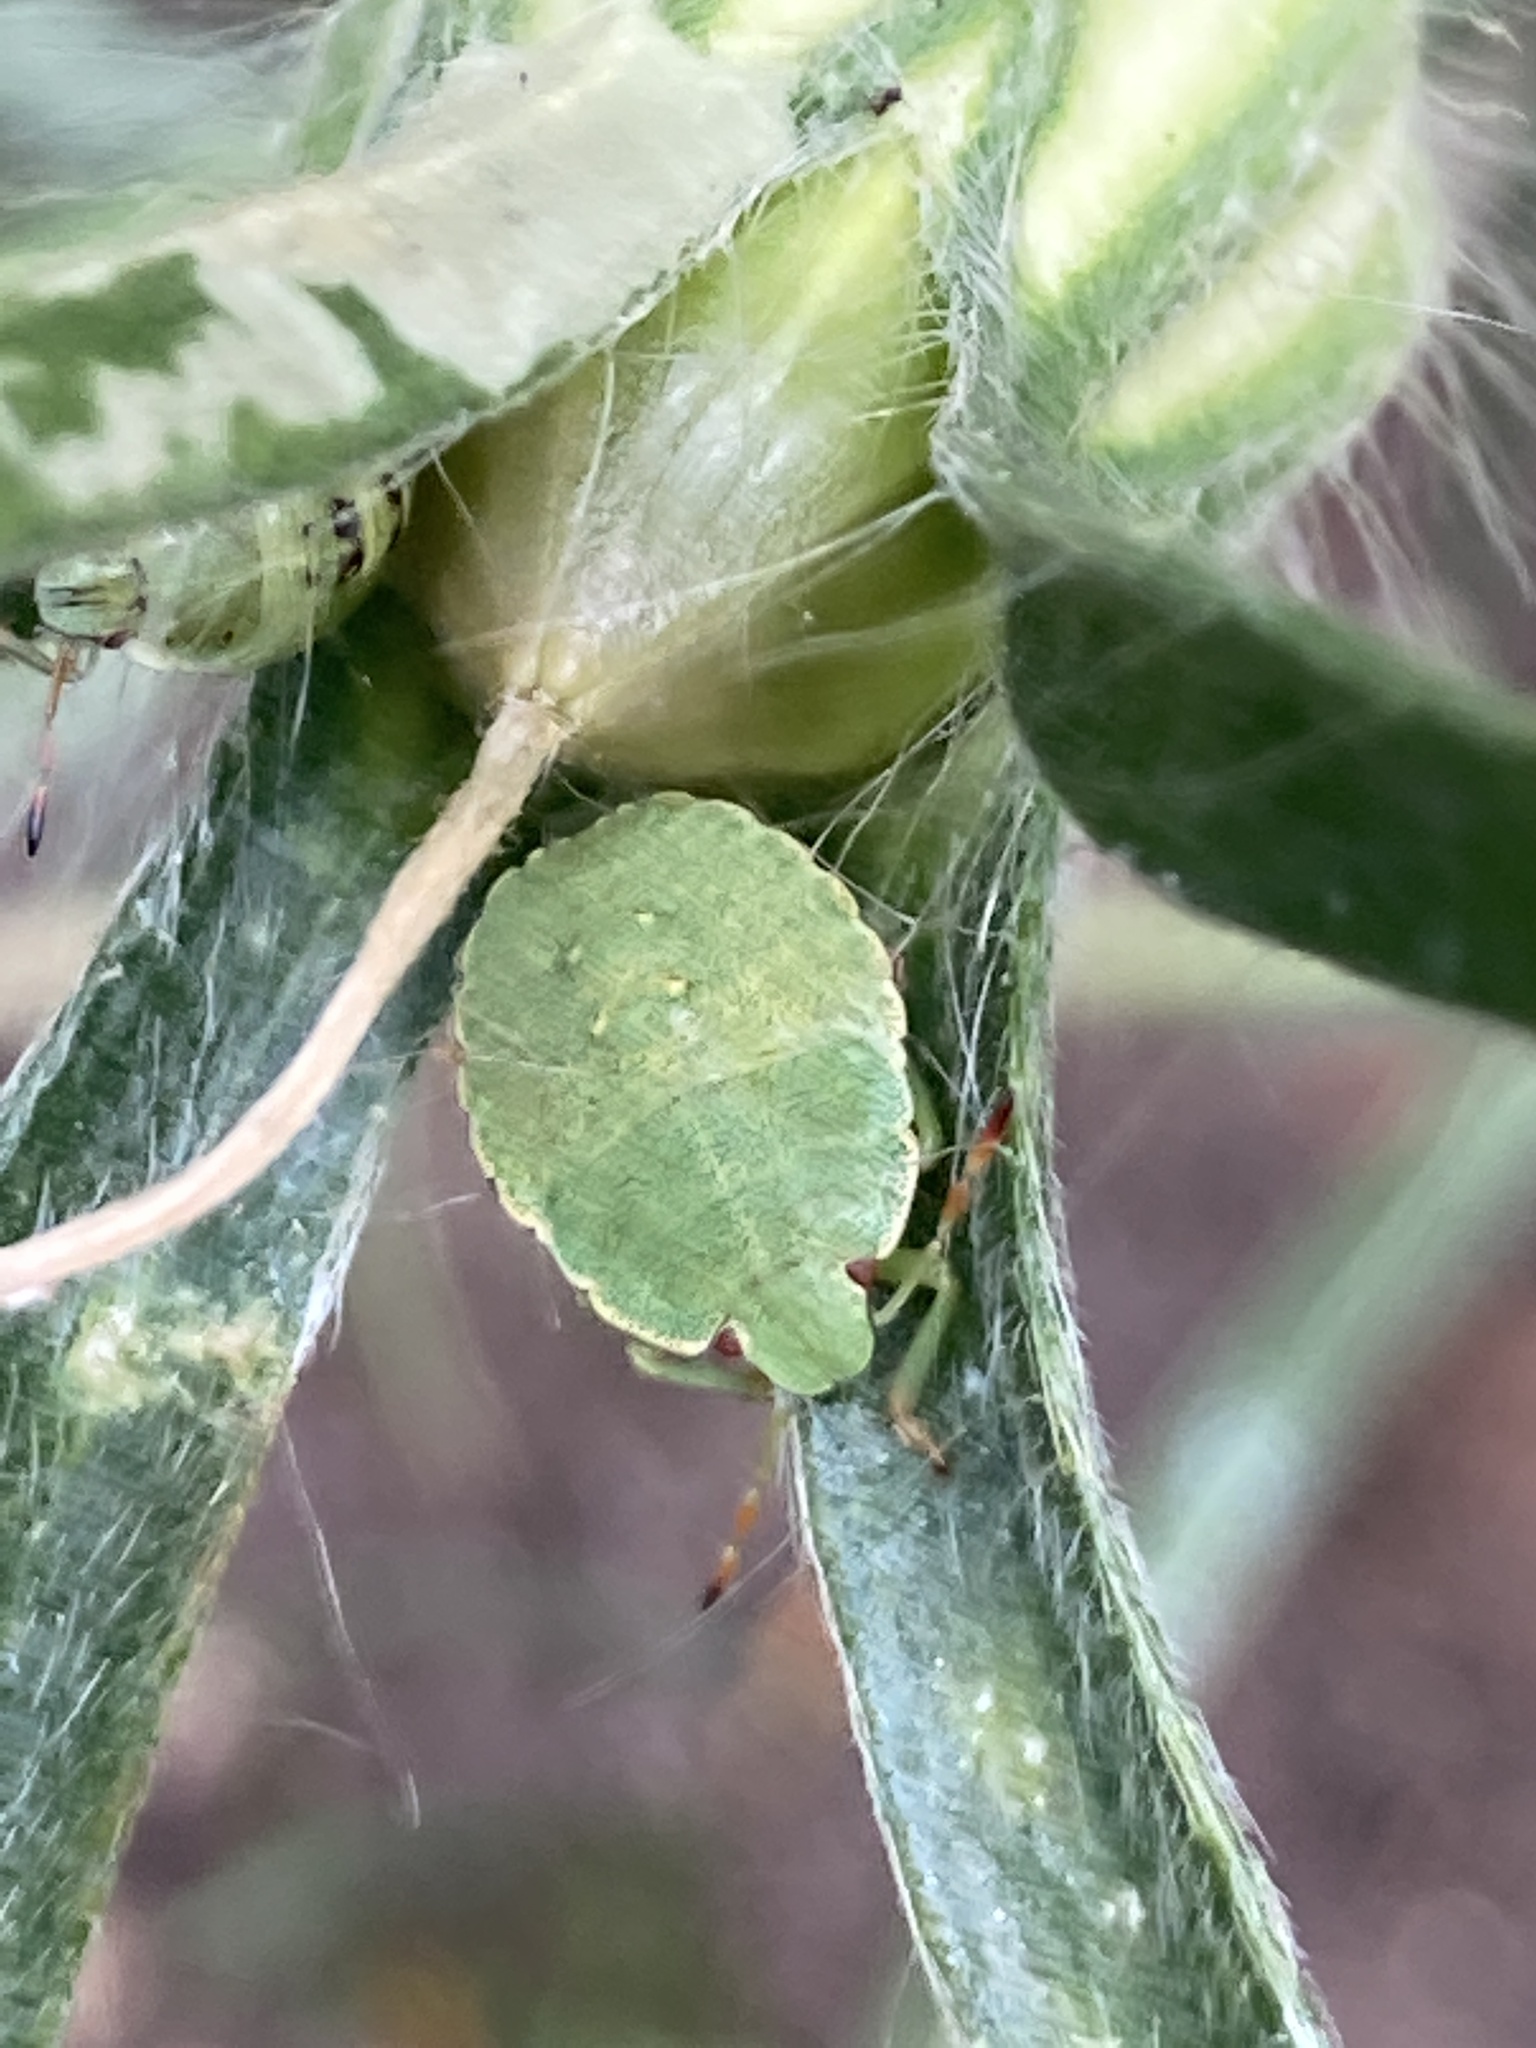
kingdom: Animalia
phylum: Arthropoda
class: Insecta
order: Hemiptera
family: Pentatomidae
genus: Palomena
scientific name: Palomena prasina
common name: Green shieldbug
